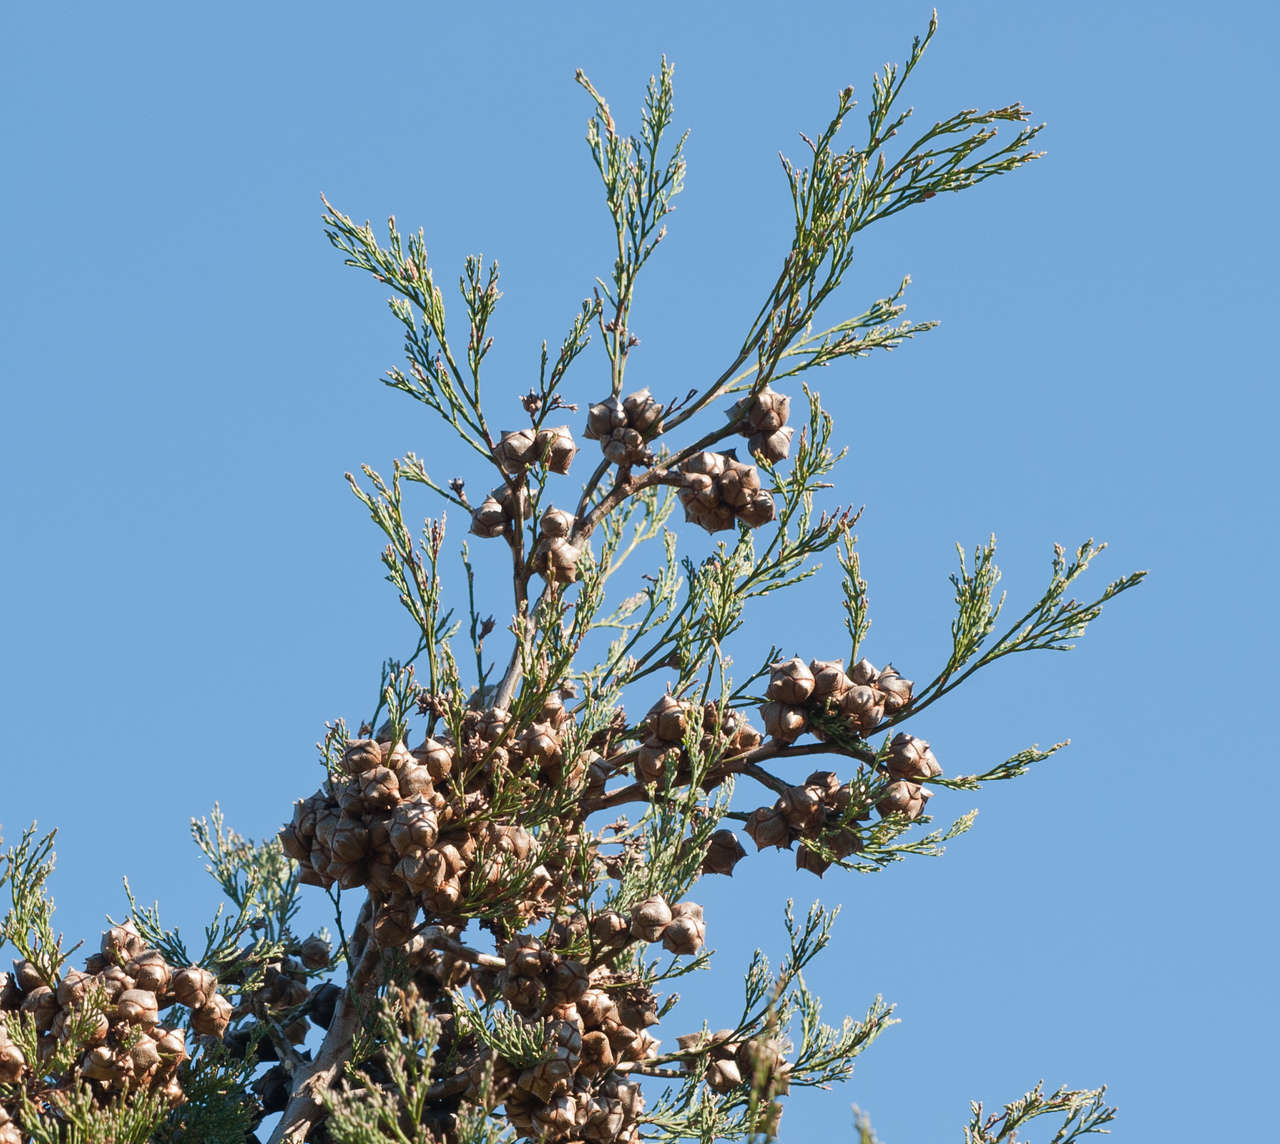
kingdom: Plantae
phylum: Tracheophyta
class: Pinopsida
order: Pinales
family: Cupressaceae
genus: Callitris
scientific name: Callitris rhomboidea
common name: Illawara mountain pine
